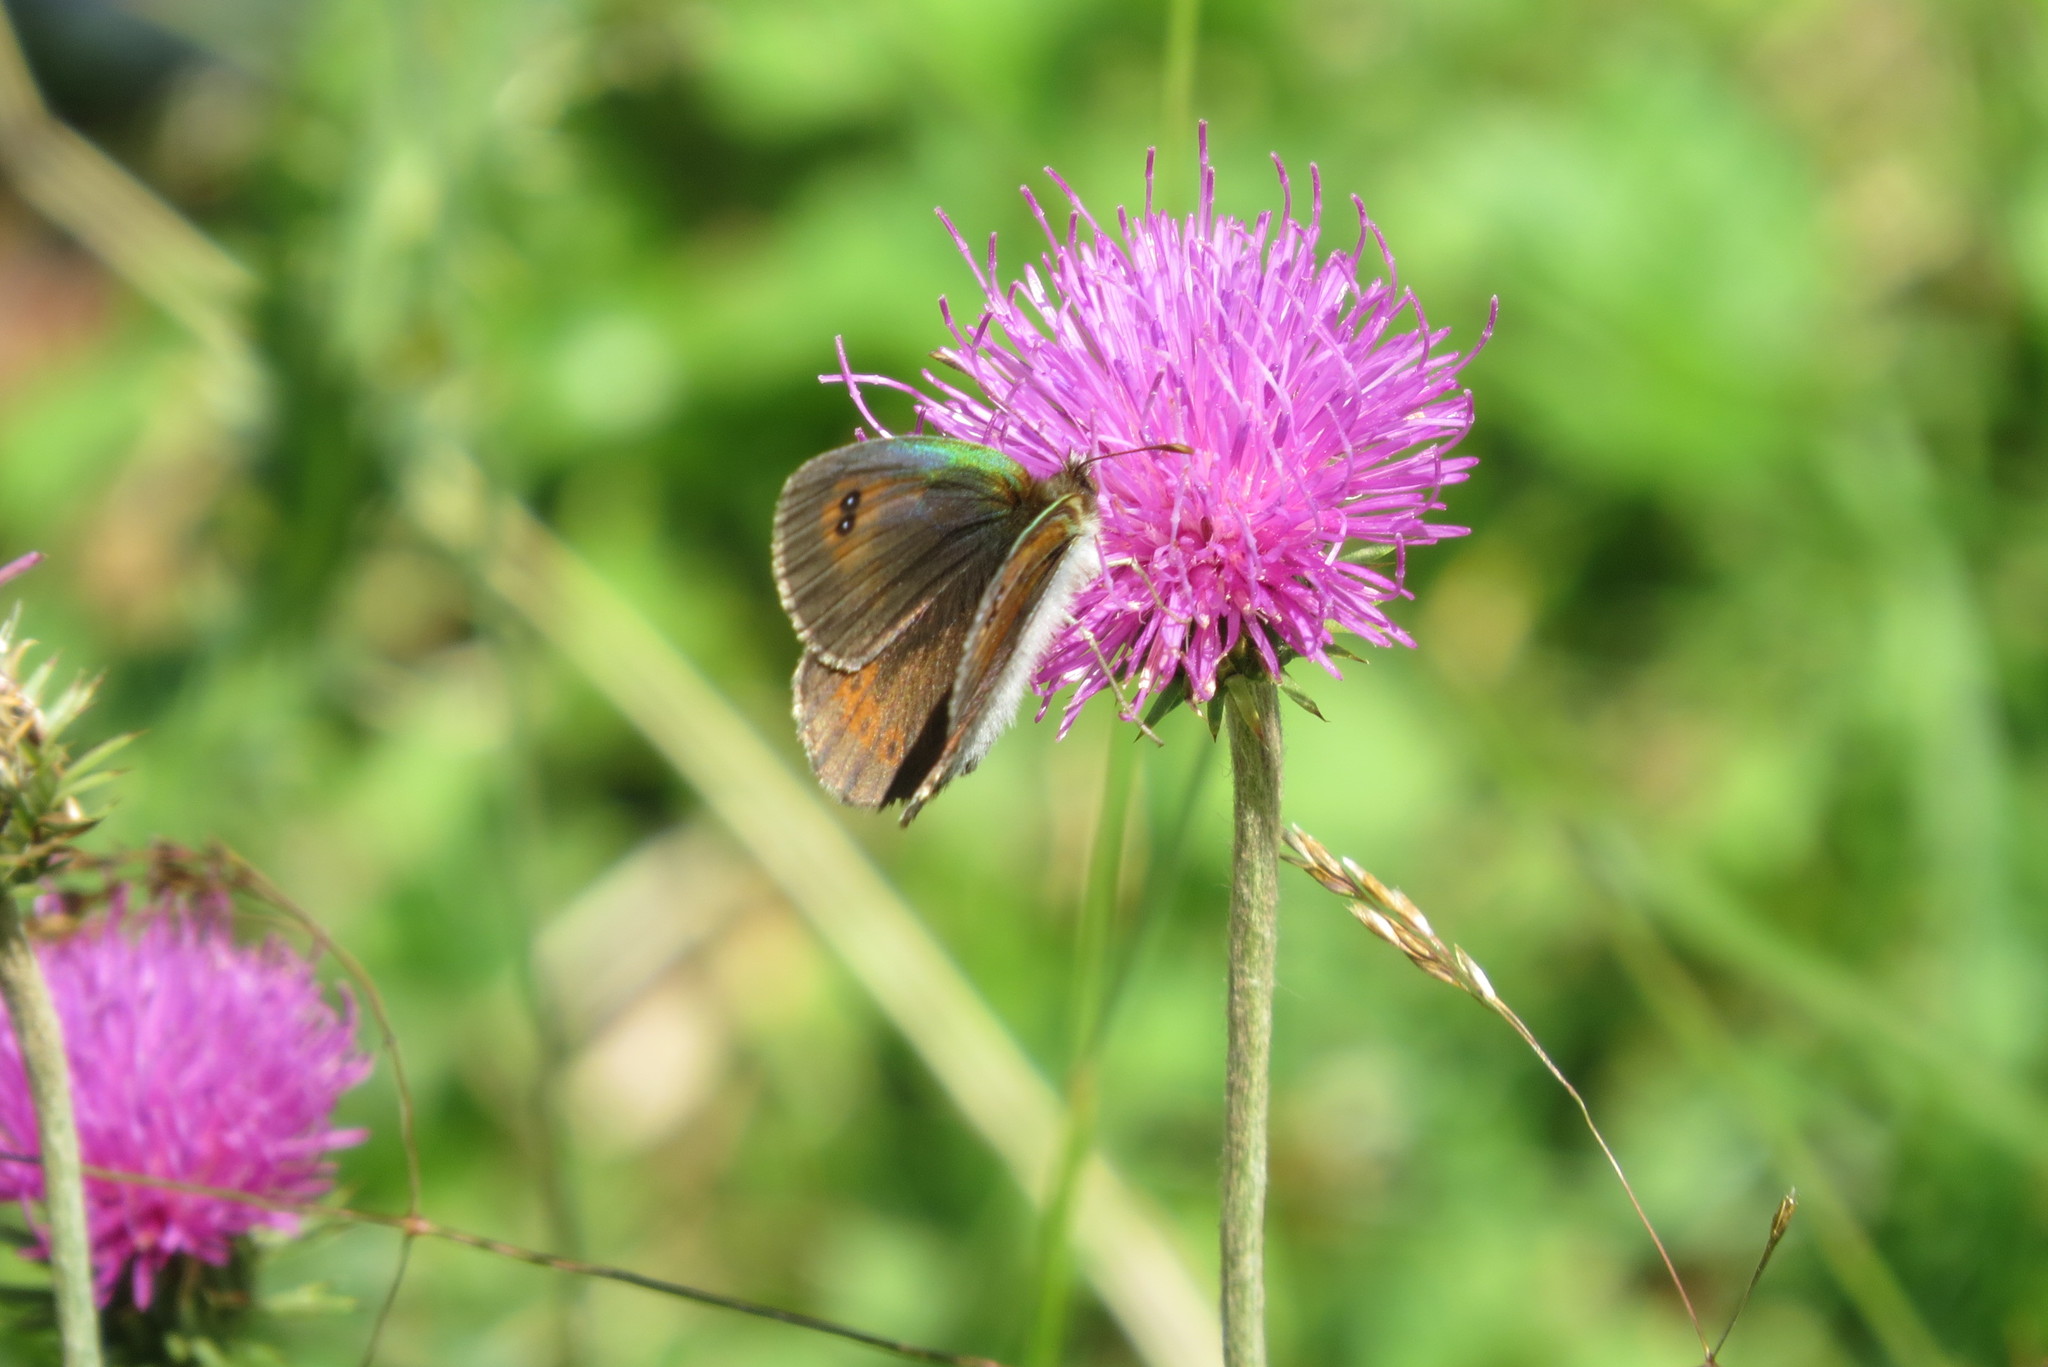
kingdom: Animalia
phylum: Arthropoda
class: Insecta
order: Lepidoptera
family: Nymphalidae
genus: Erebia
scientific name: Erebia cassioides
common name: Common brassy ringlet
